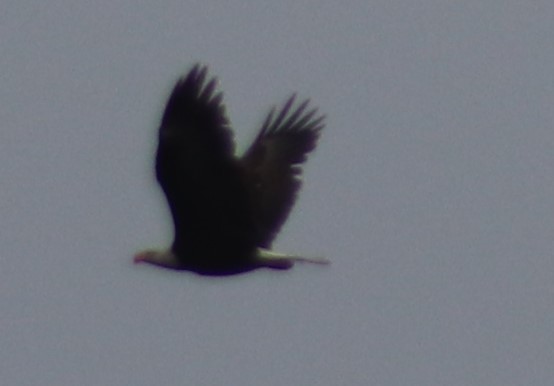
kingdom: Animalia
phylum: Chordata
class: Aves
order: Accipitriformes
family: Accipitridae
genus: Haliaeetus
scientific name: Haliaeetus leucocephalus
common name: Bald eagle
